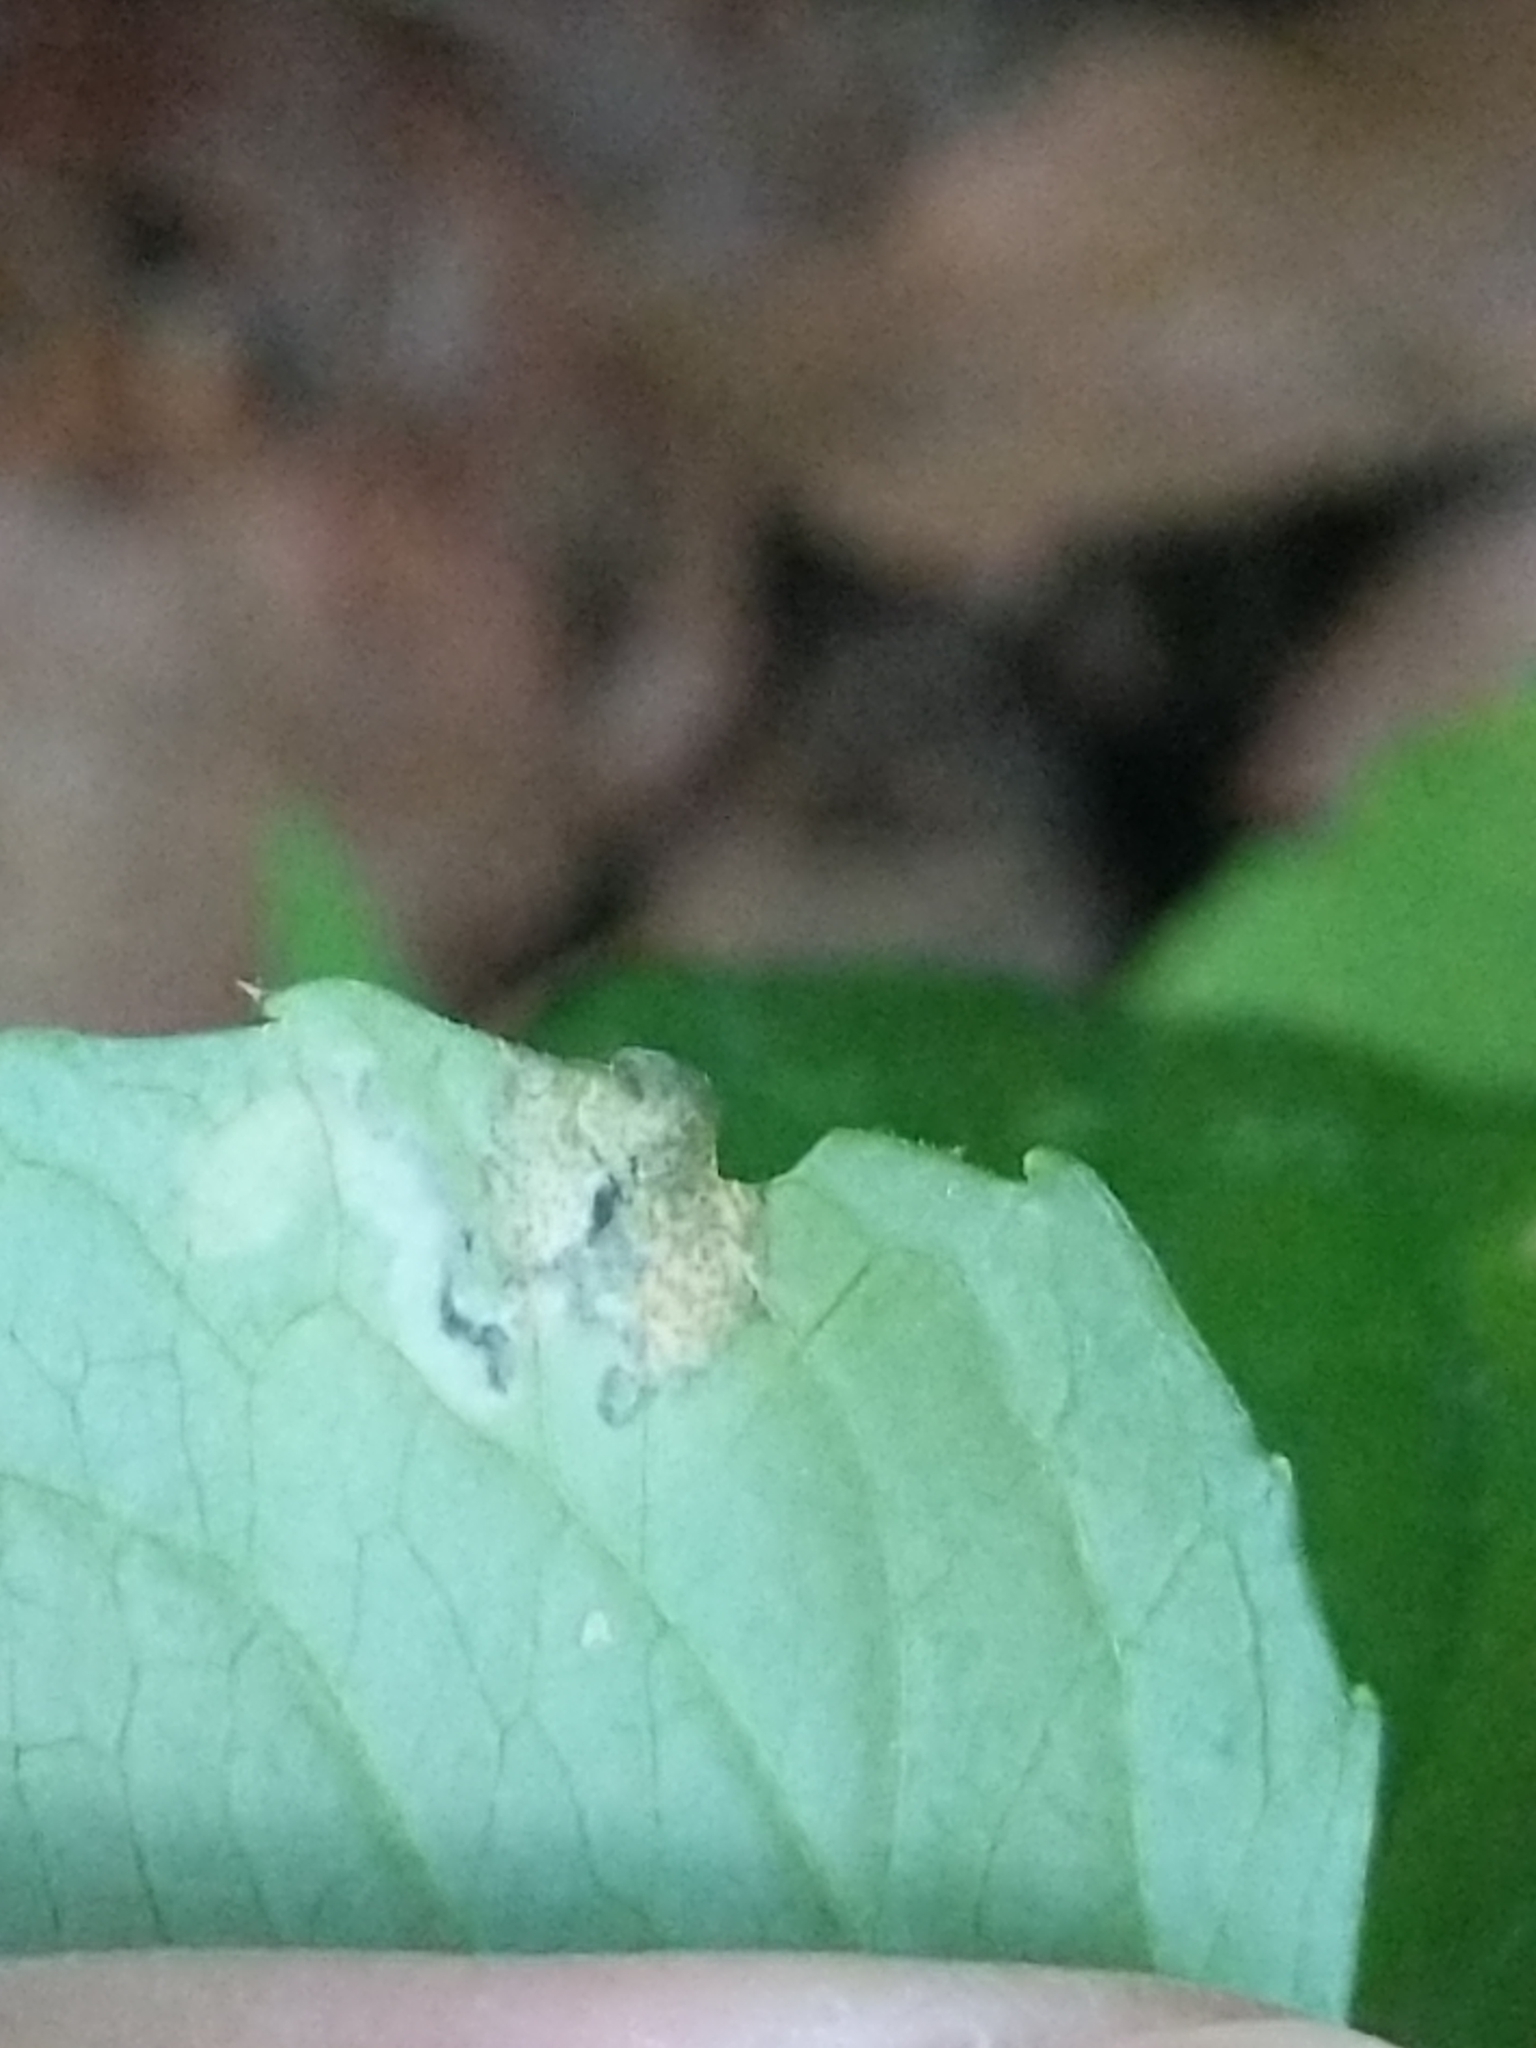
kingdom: Animalia
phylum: Arthropoda
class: Insecta
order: Hymenoptera
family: Tenthredinidae
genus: Nefusa
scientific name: Nefusa ambigua
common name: Violet leafmining sawfly
